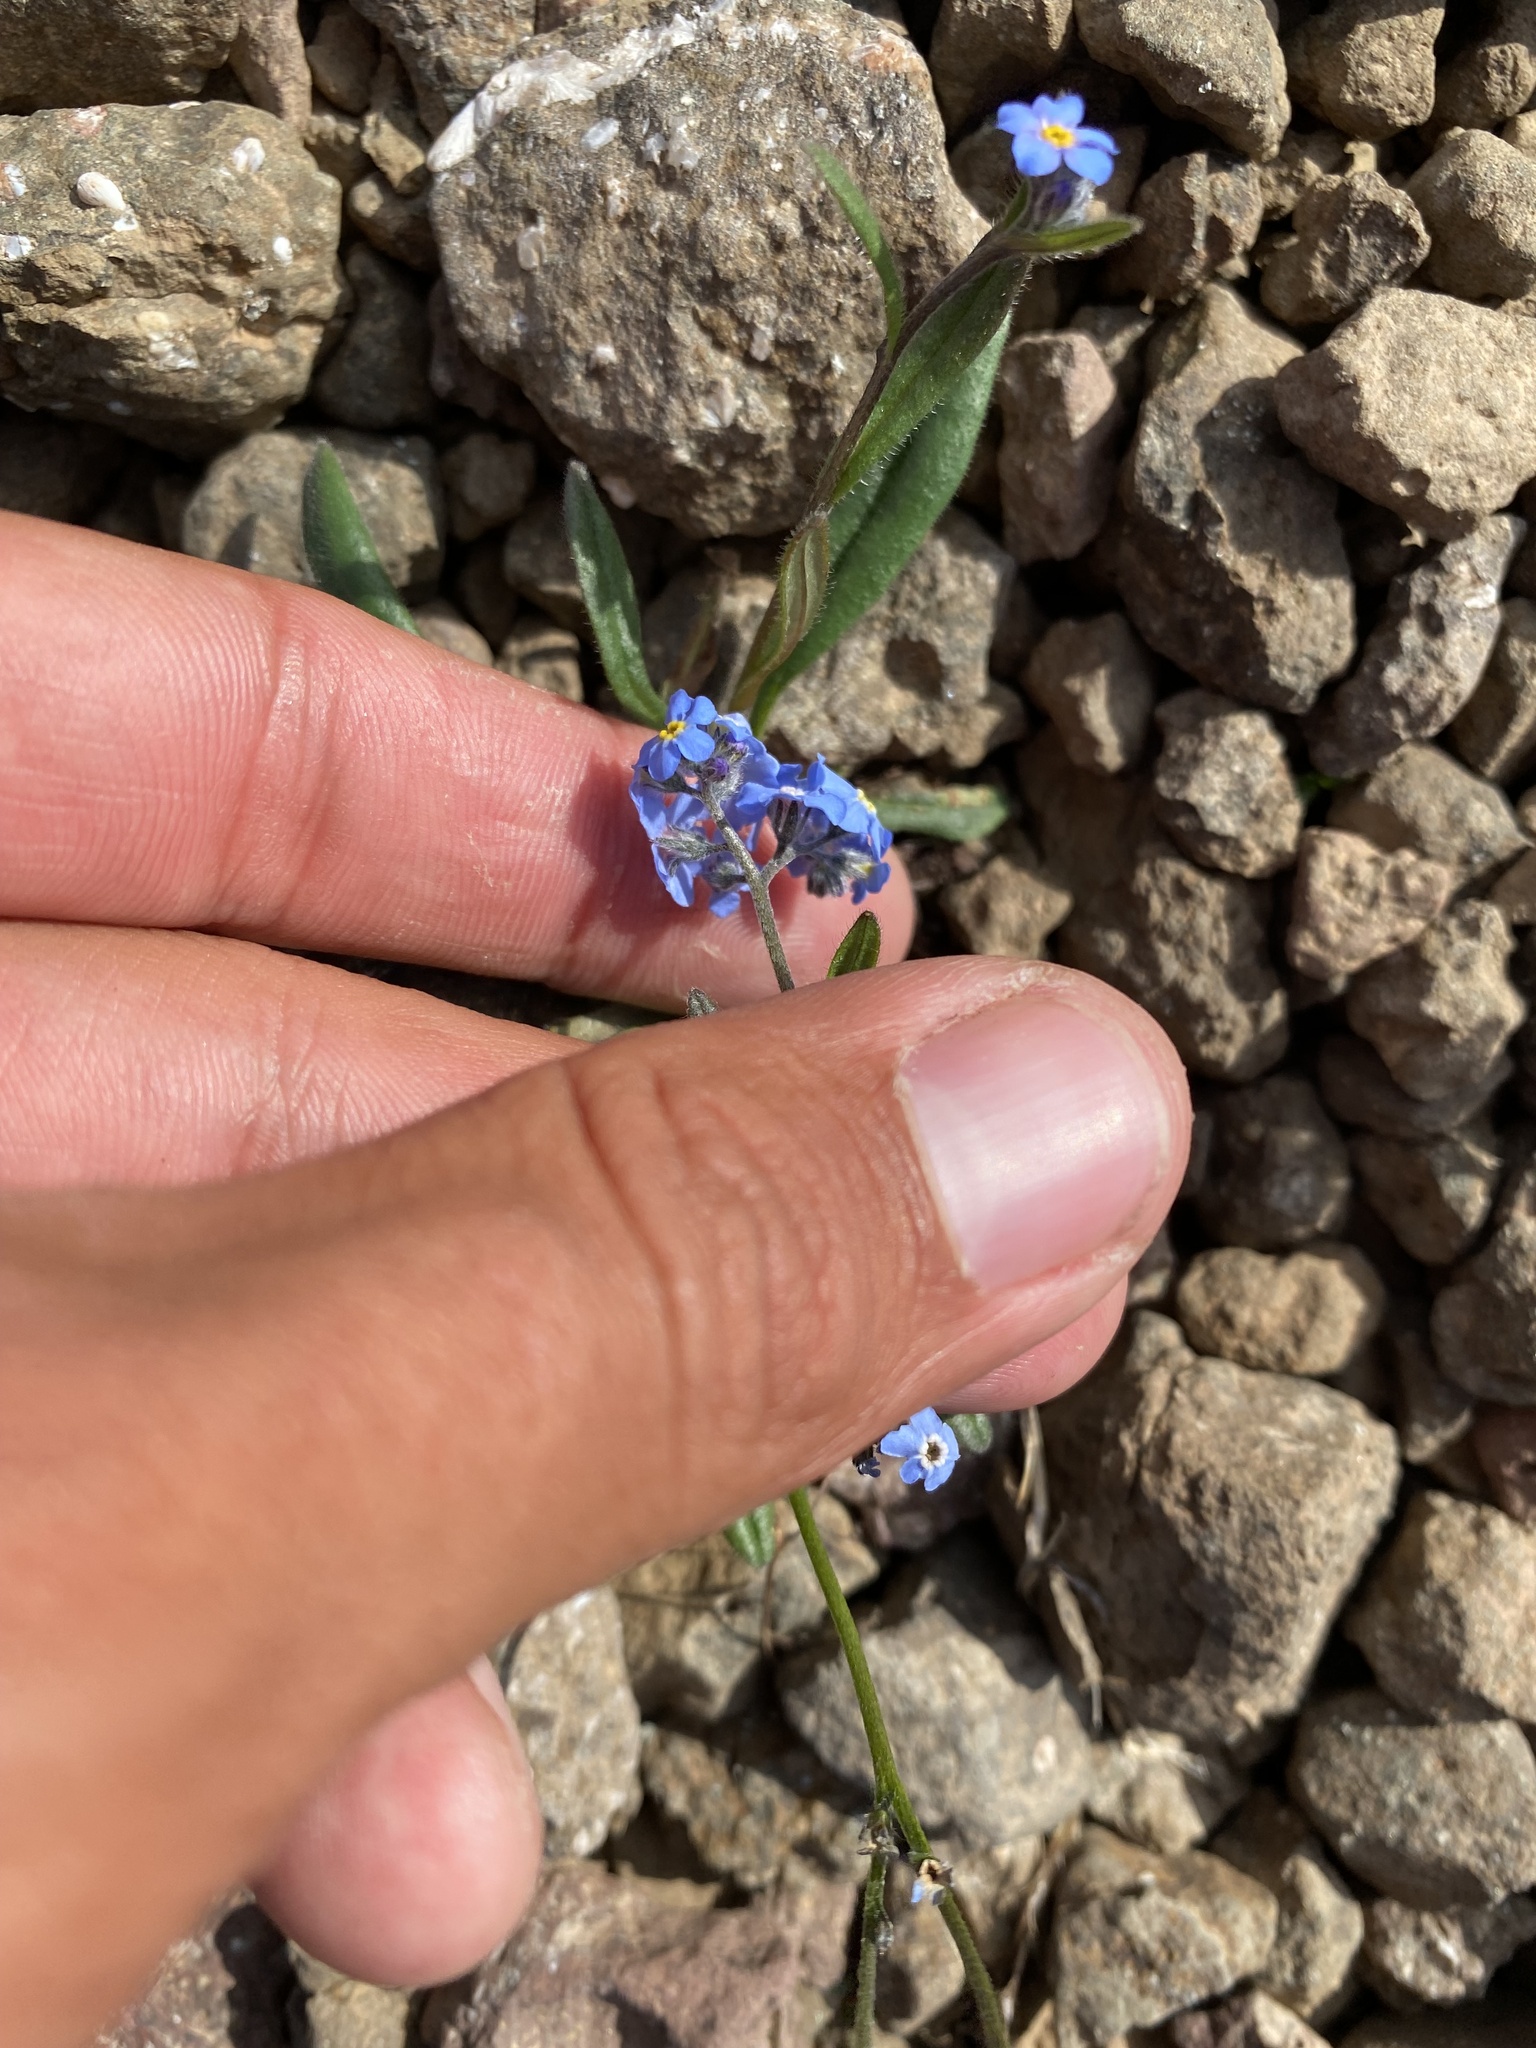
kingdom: Plantae
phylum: Tracheophyta
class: Magnoliopsida
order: Boraginales
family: Boraginaceae
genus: Myosotis
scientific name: Myosotis asiatica
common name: Asian forget-me-not
